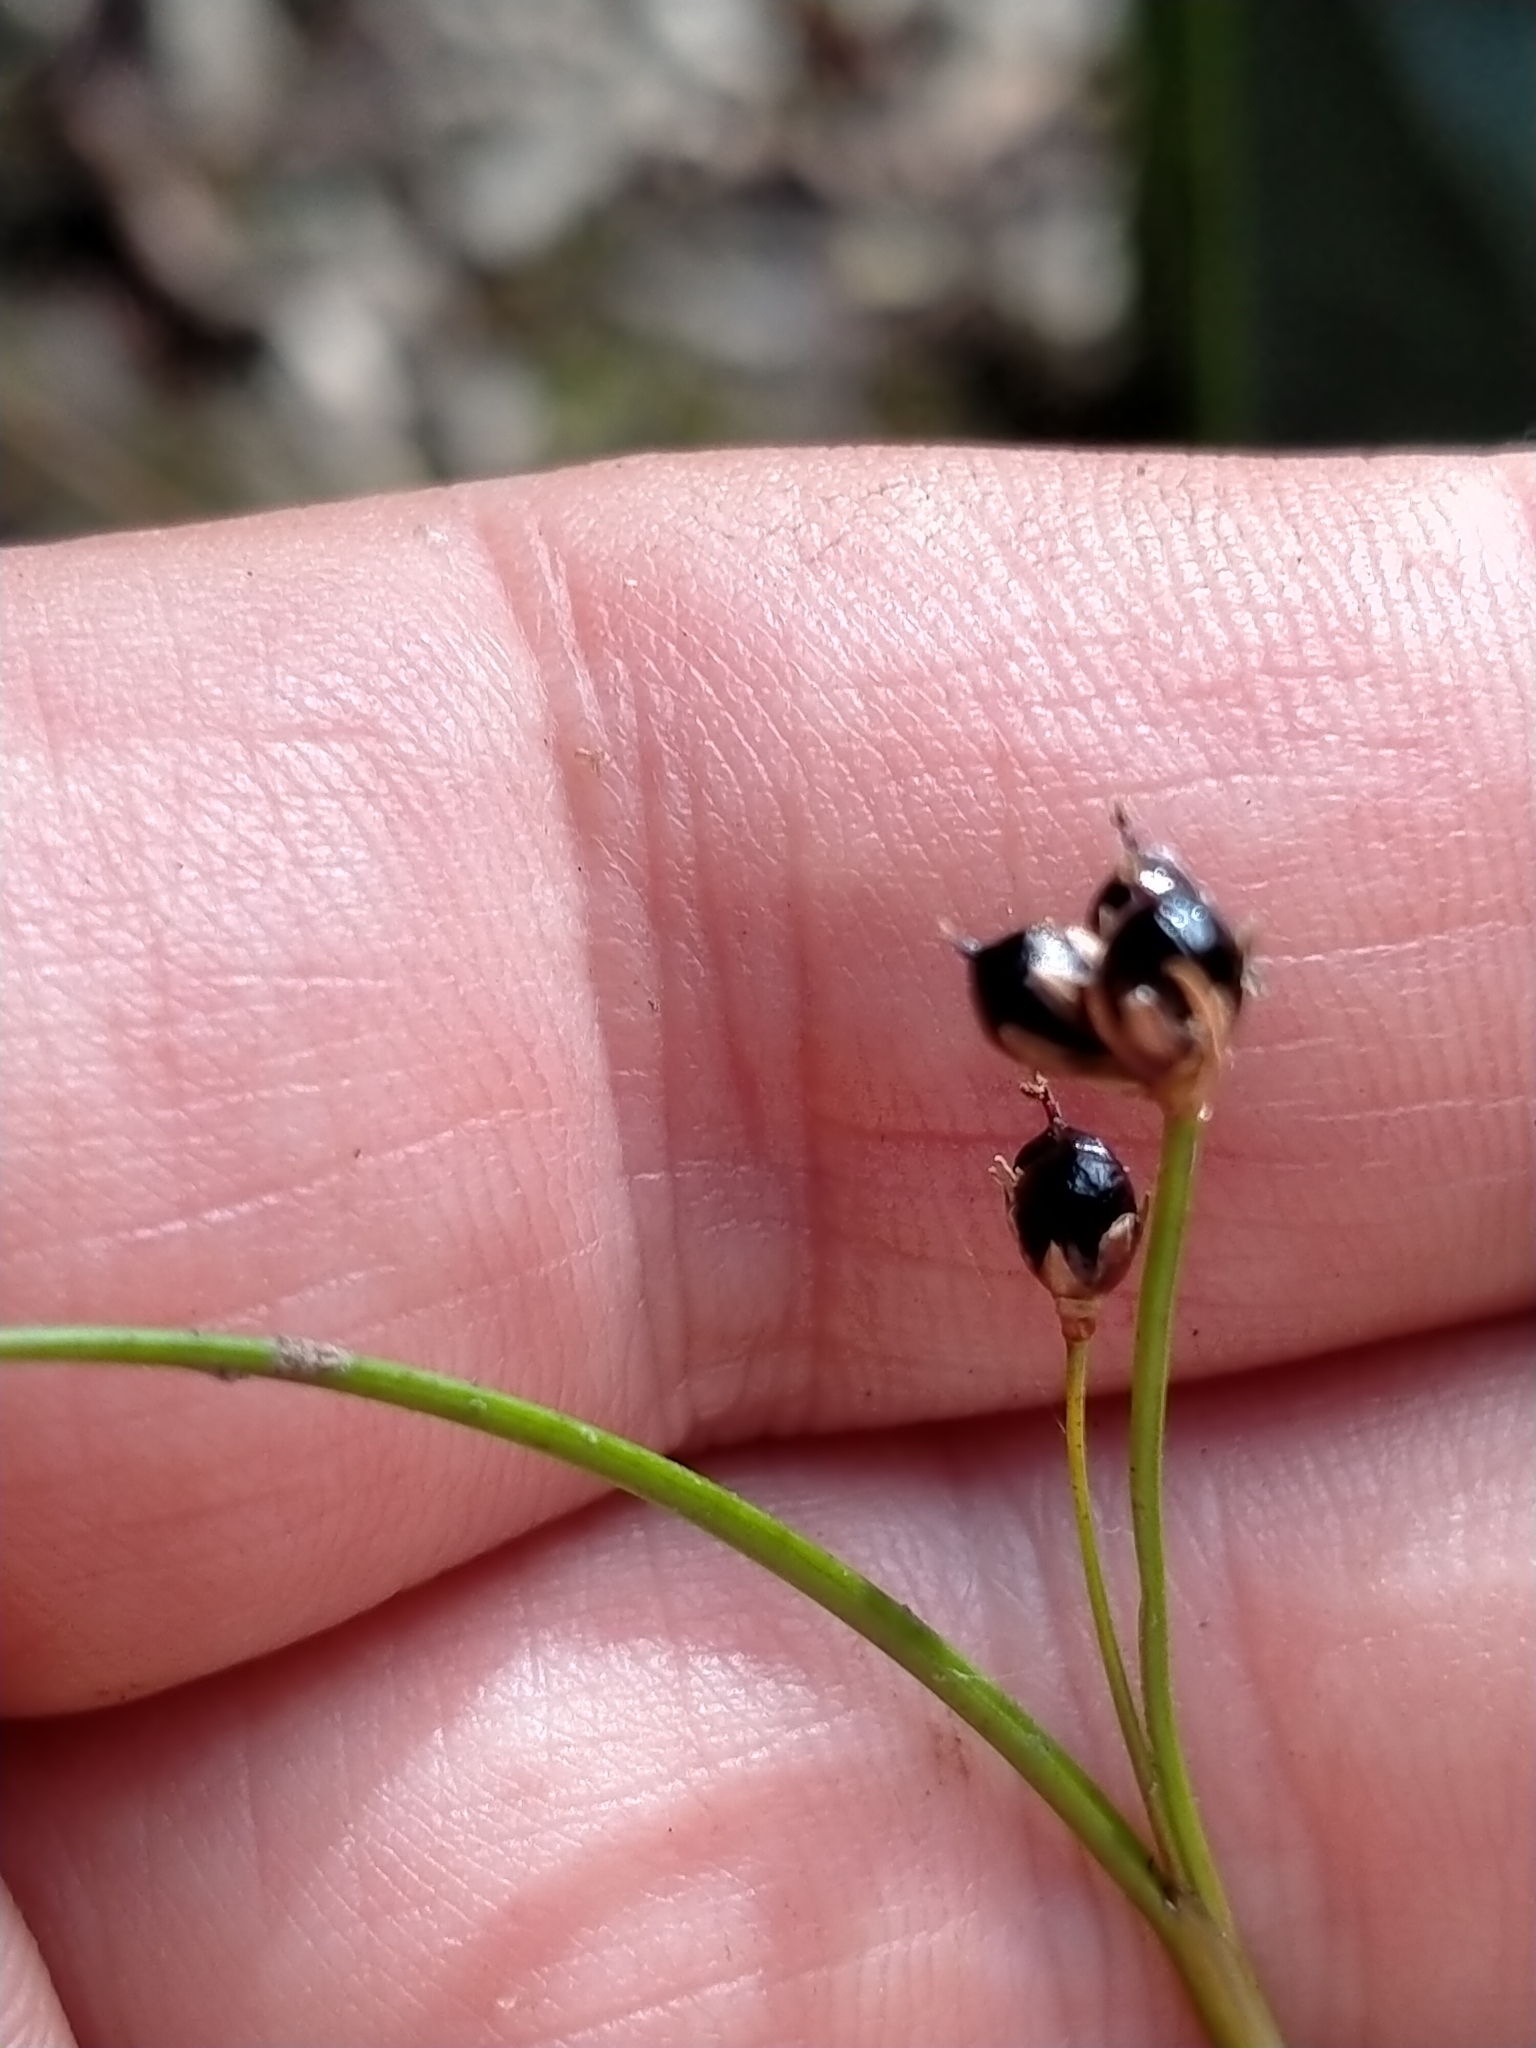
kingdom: Plantae
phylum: Tracheophyta
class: Liliopsida
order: Poales
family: Juncaceae
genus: Juncus
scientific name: Juncus novae-zelandiae
